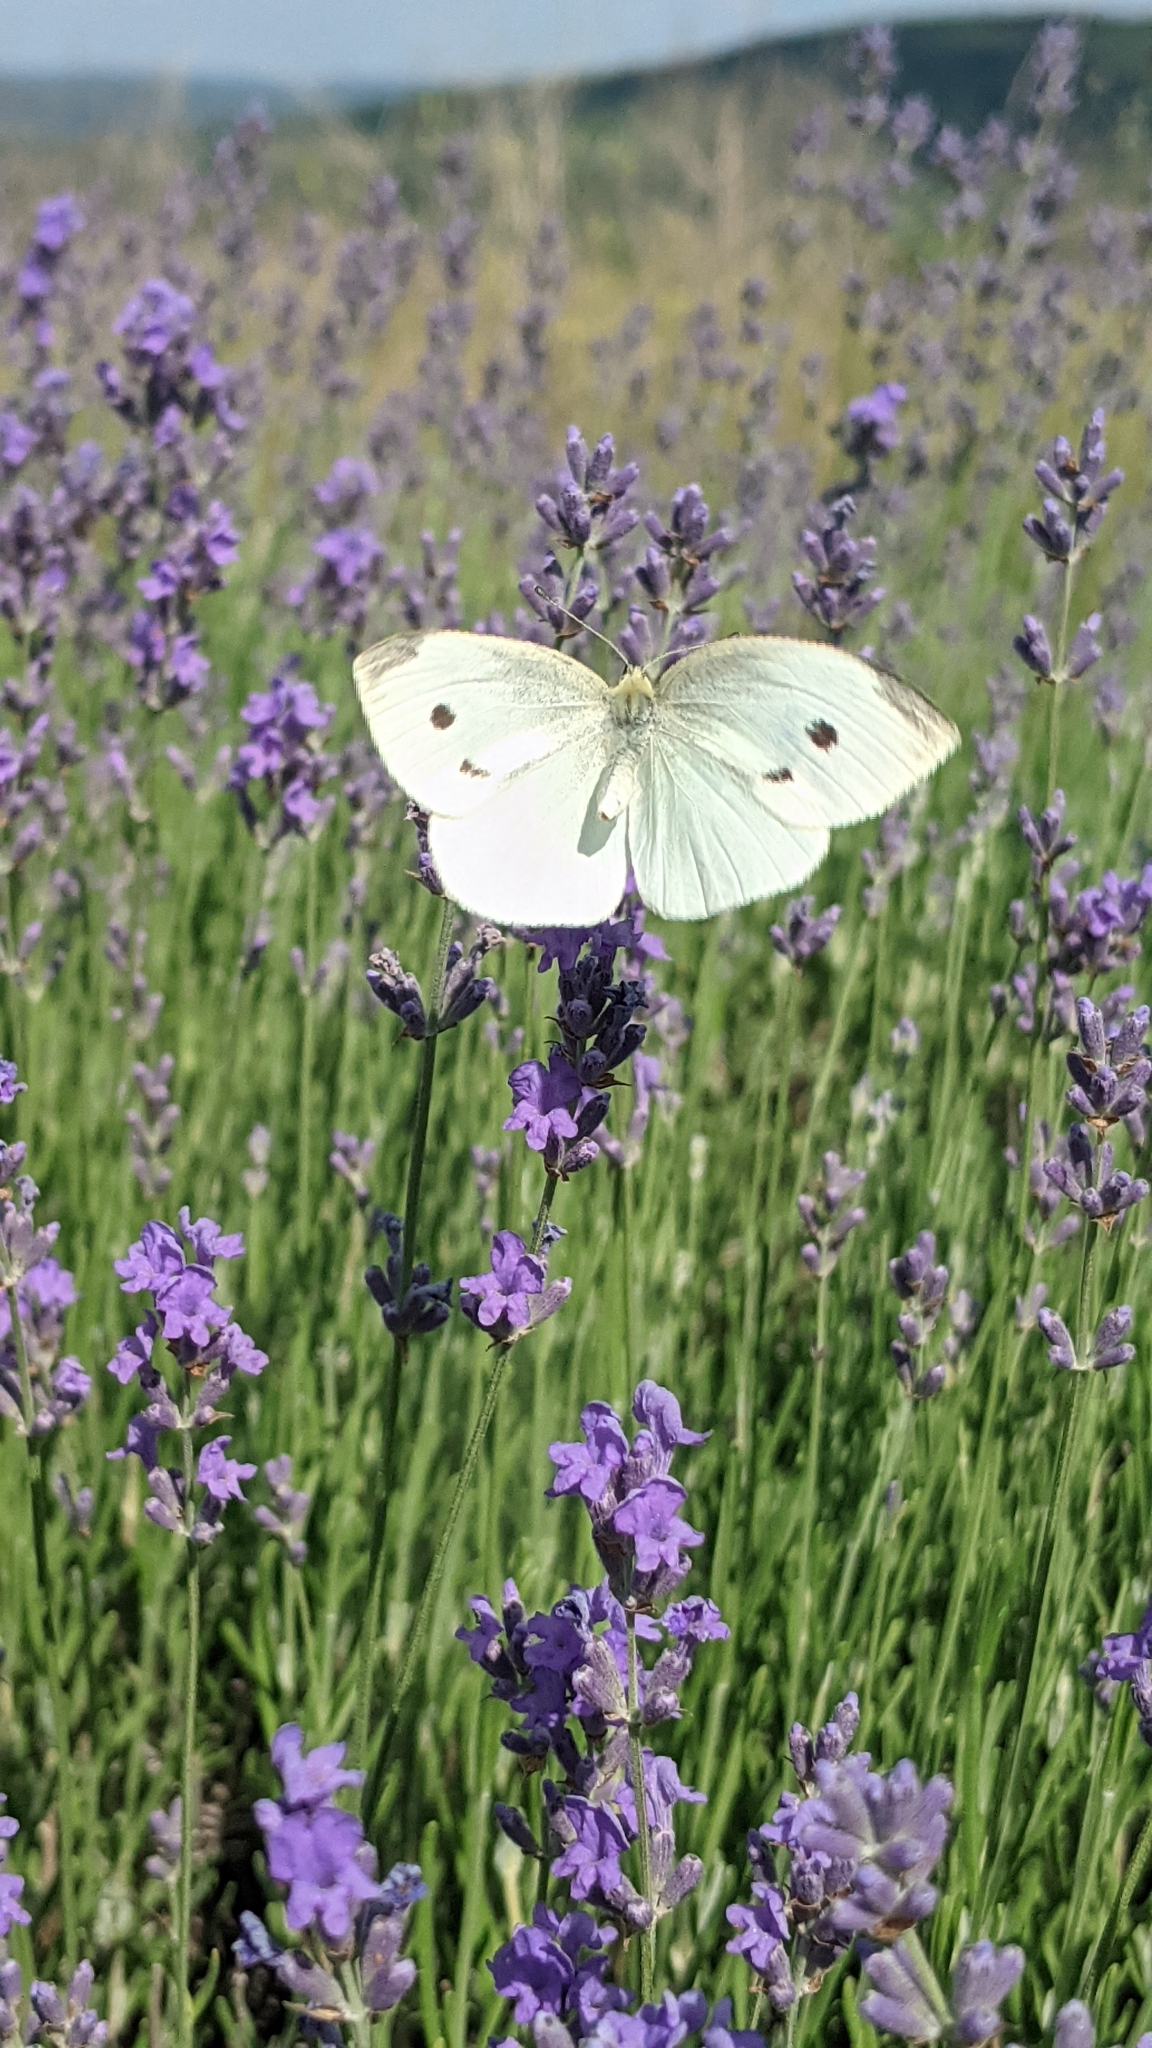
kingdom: Animalia
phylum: Arthropoda
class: Insecta
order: Lepidoptera
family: Pieridae
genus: Pieris
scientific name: Pieris rapae
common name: Small white
